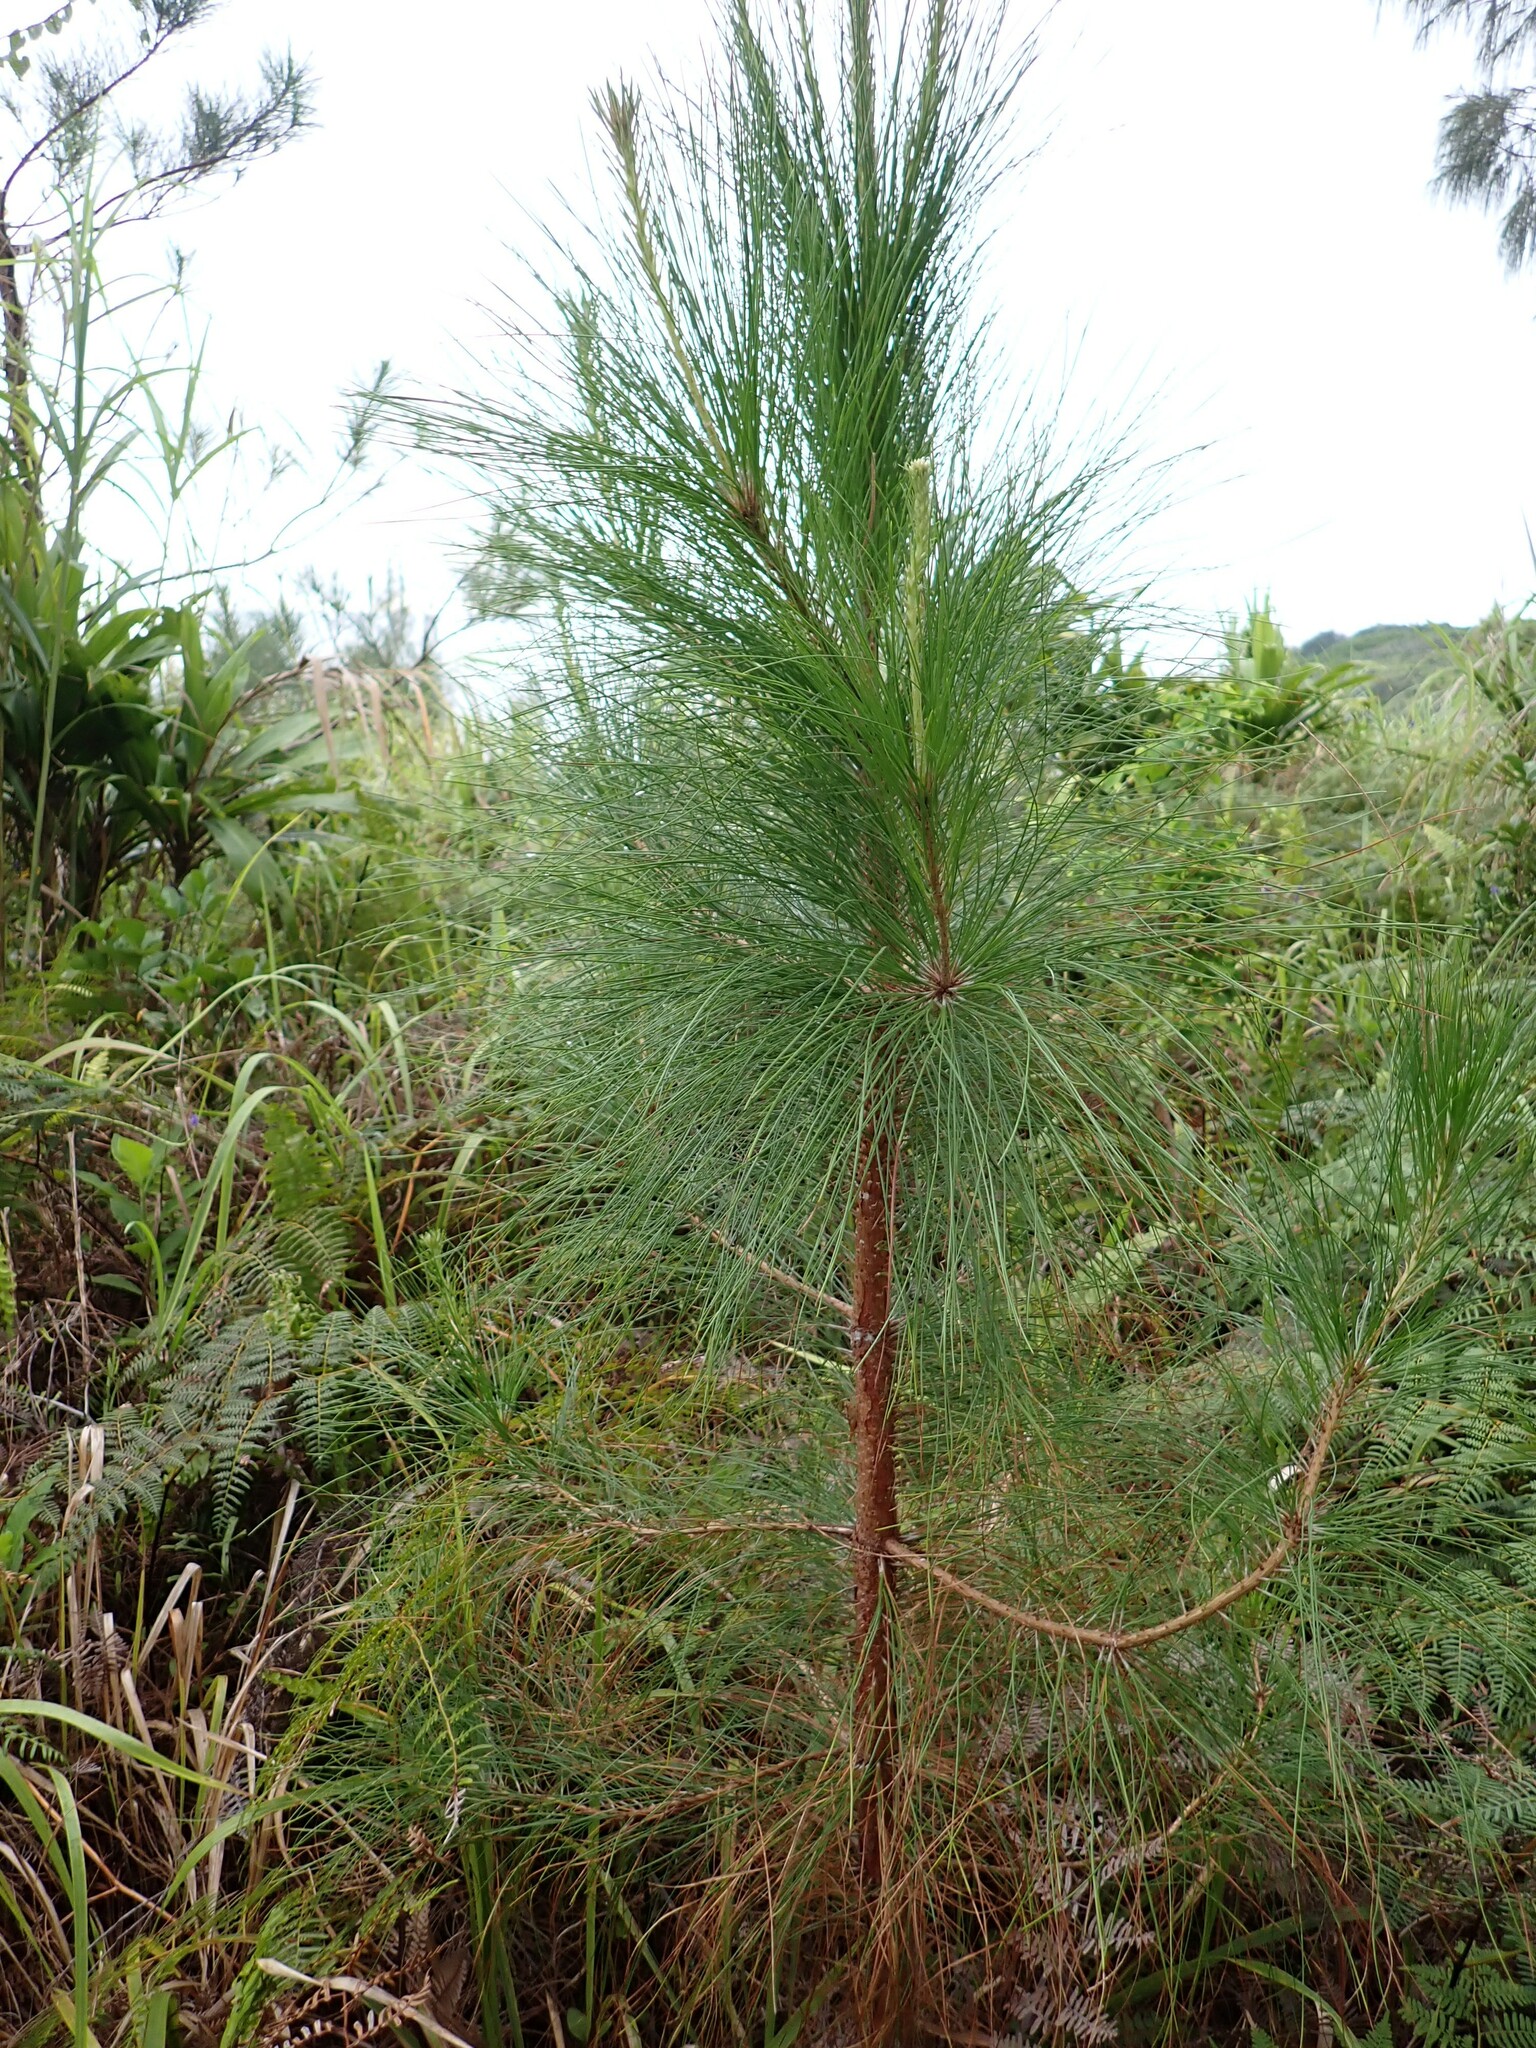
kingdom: Plantae
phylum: Tracheophyta
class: Pinopsida
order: Pinales
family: Pinaceae
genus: Pinus
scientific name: Pinus caribaea
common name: Caribbean pine
